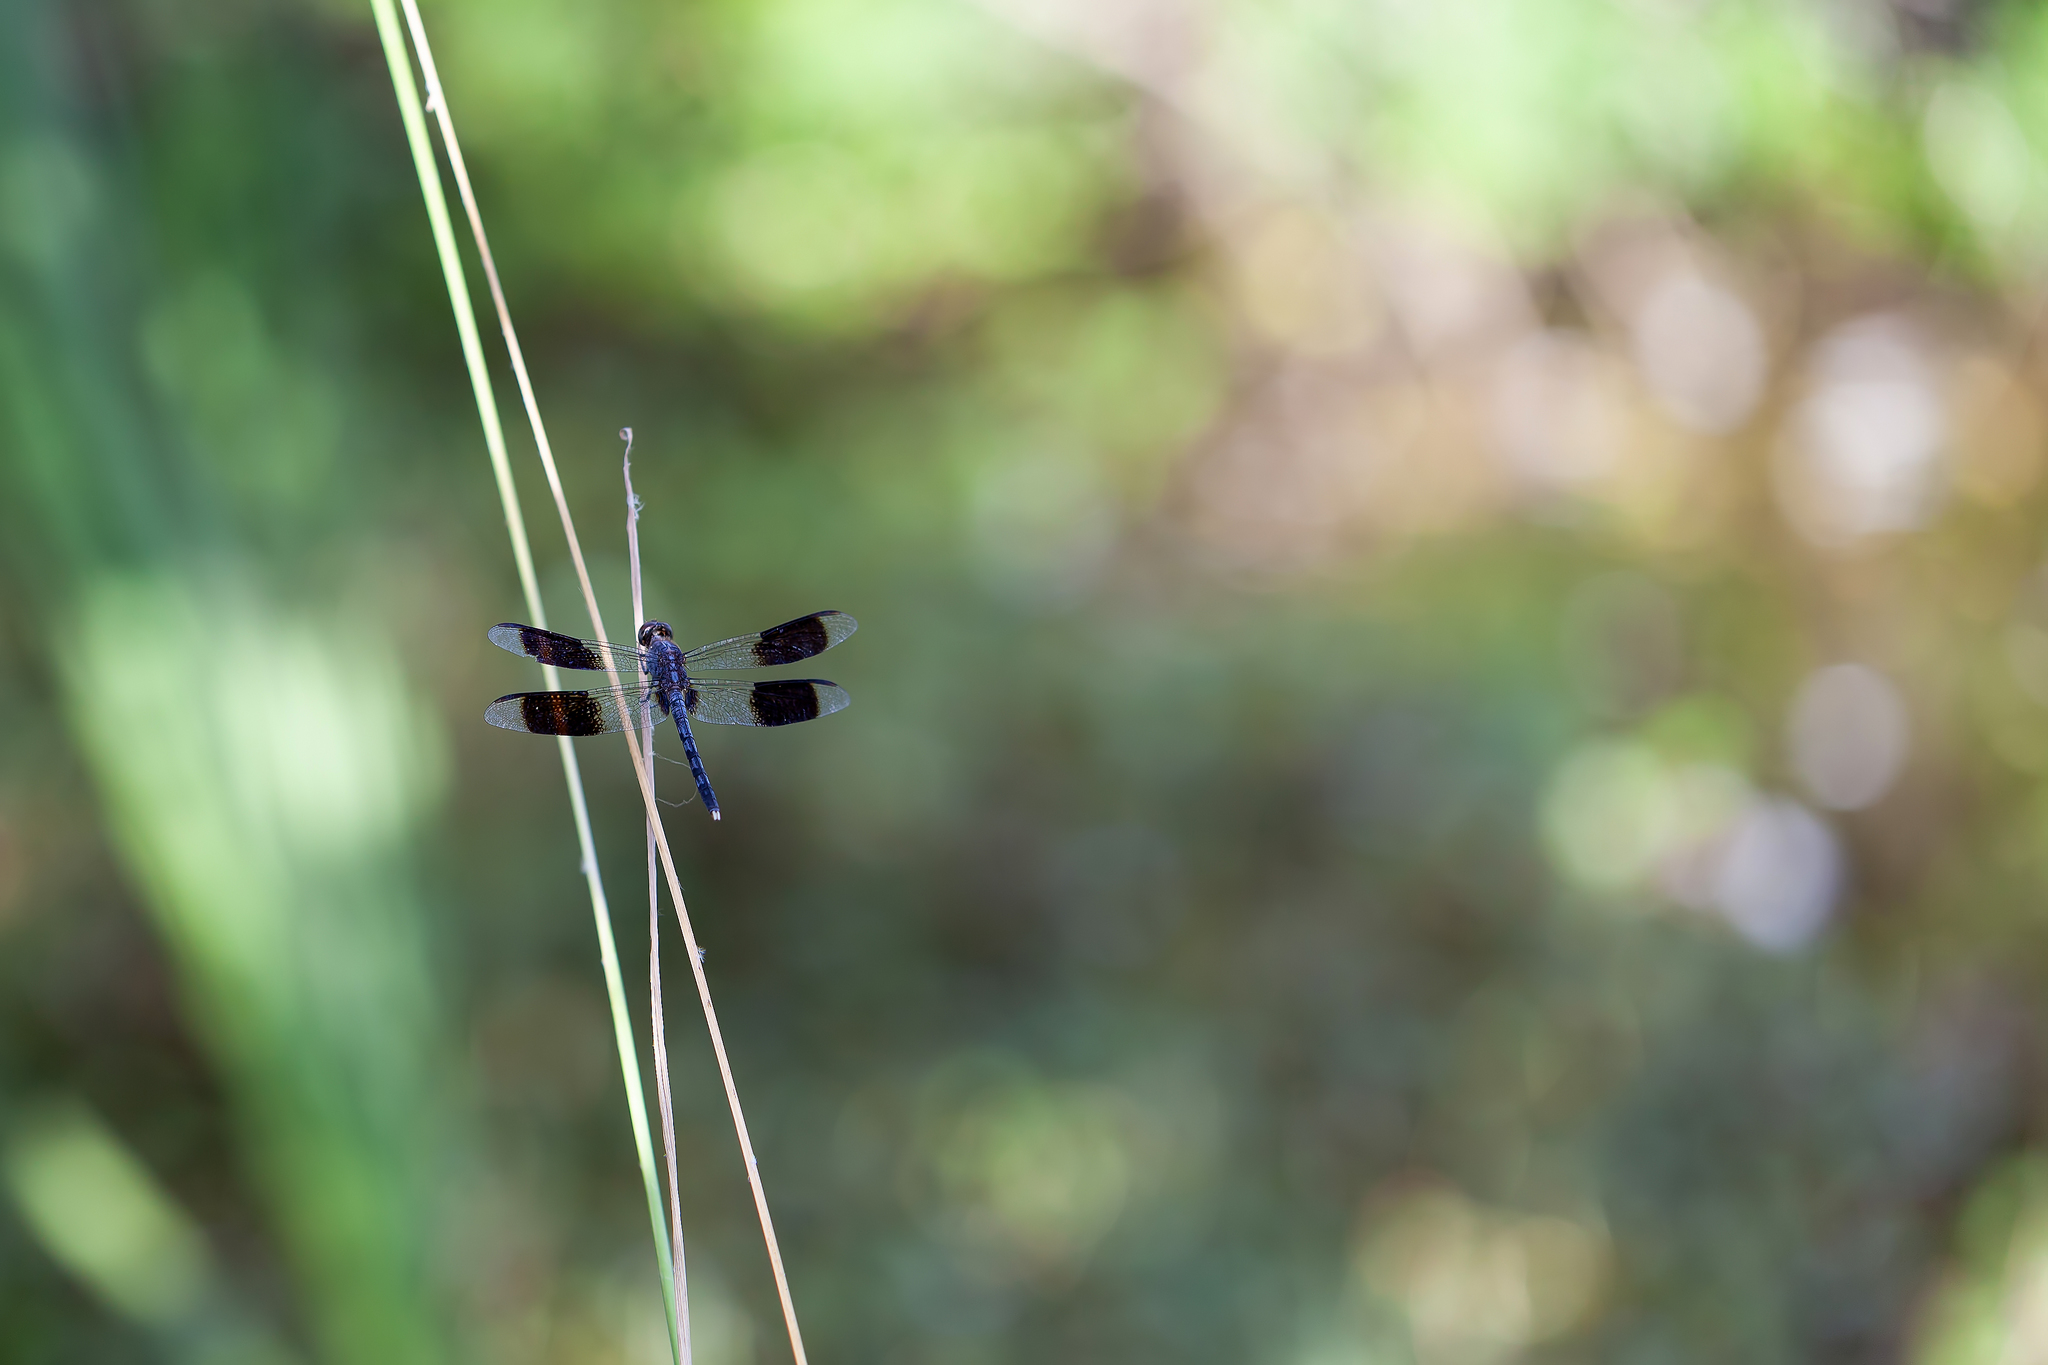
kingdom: Animalia
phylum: Arthropoda
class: Insecta
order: Odonata
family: Libellulidae
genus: Erythrodiplax
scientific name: Erythrodiplax umbrata
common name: Band-winged dragonlet
